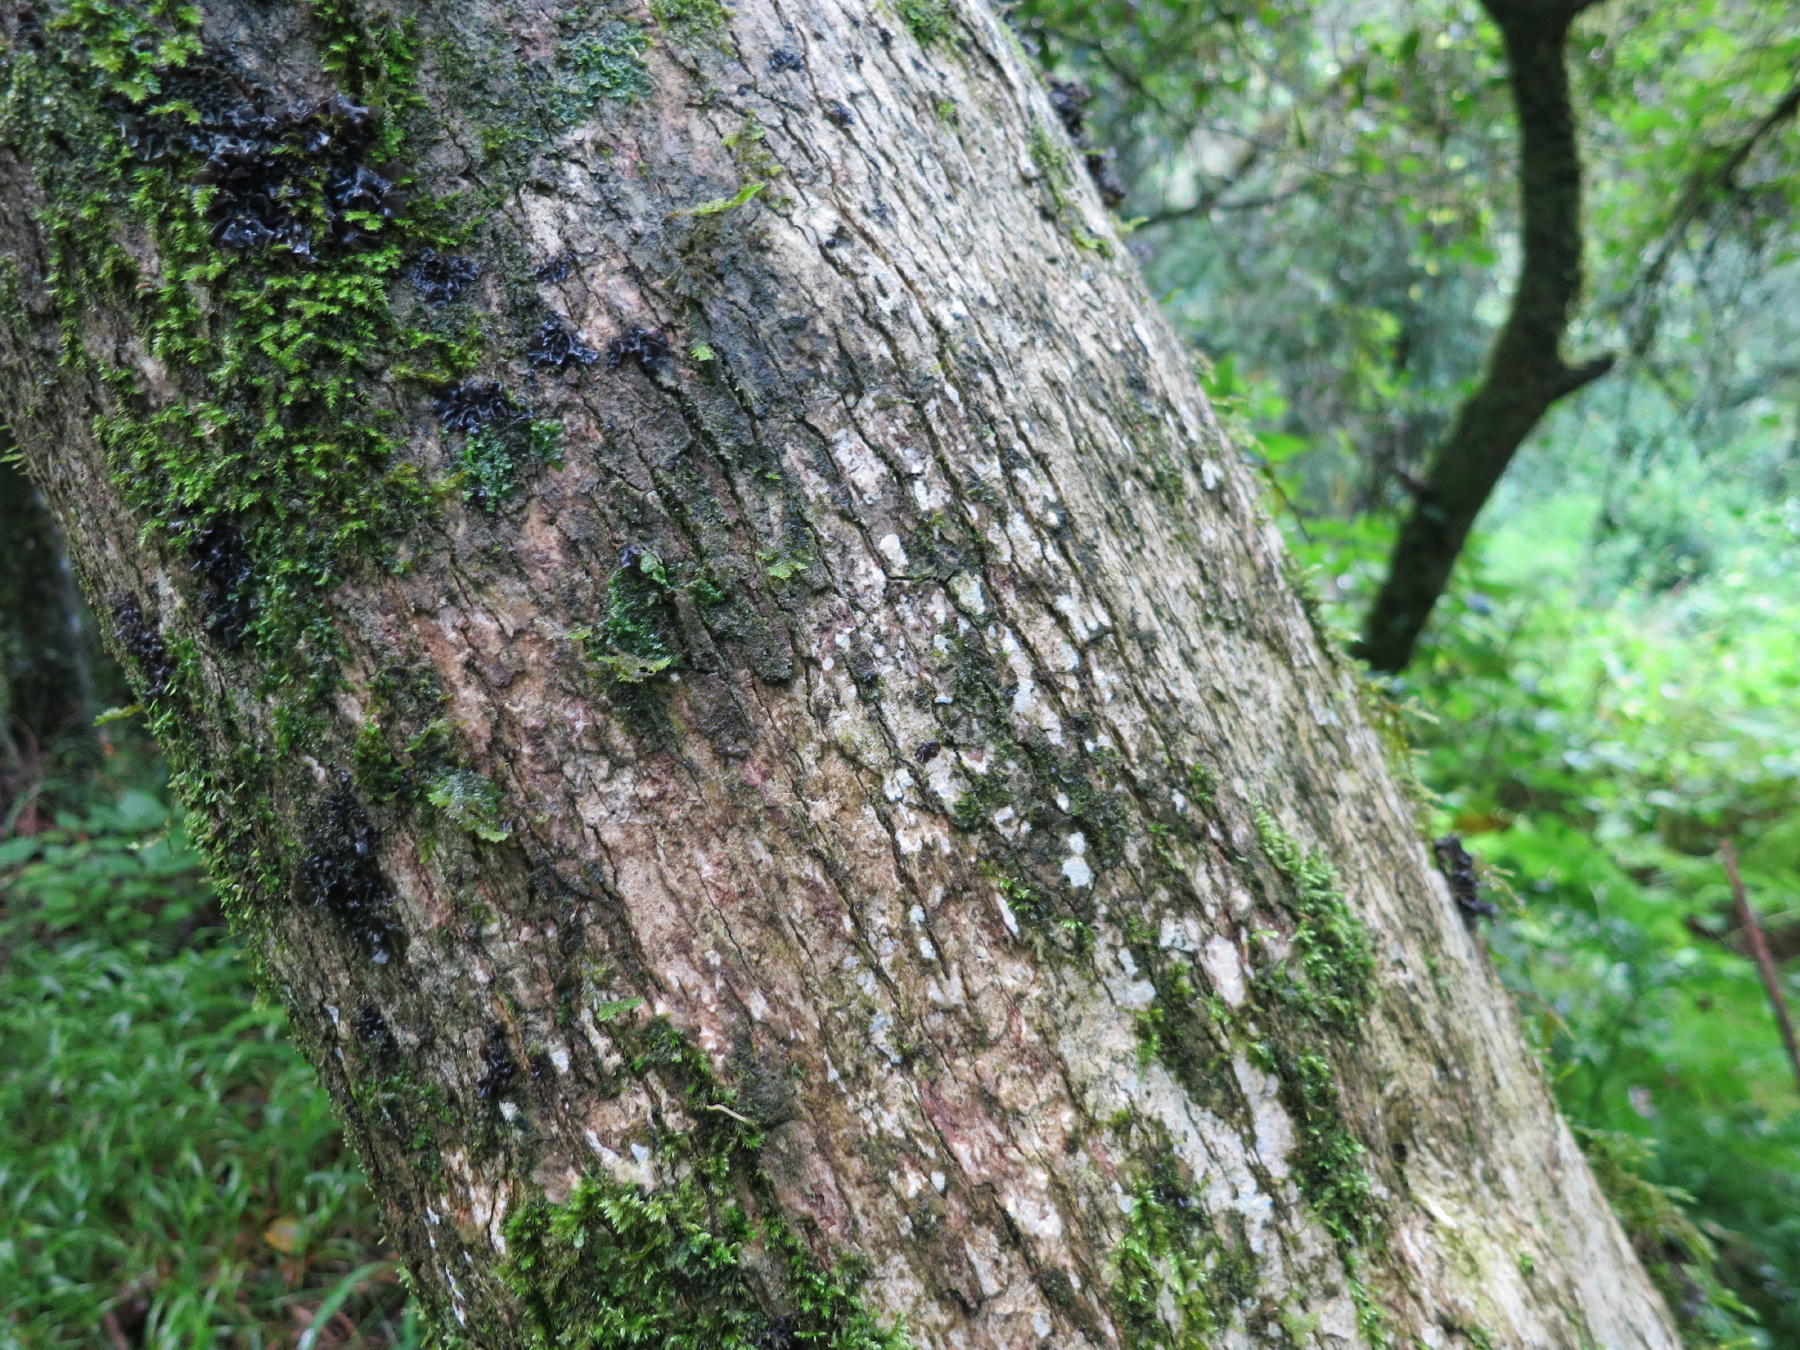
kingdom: Plantae
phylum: Tracheophyta
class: Magnoliopsida
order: Lamiales
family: Stilbaceae
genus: Nuxia
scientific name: Nuxia floribunda
